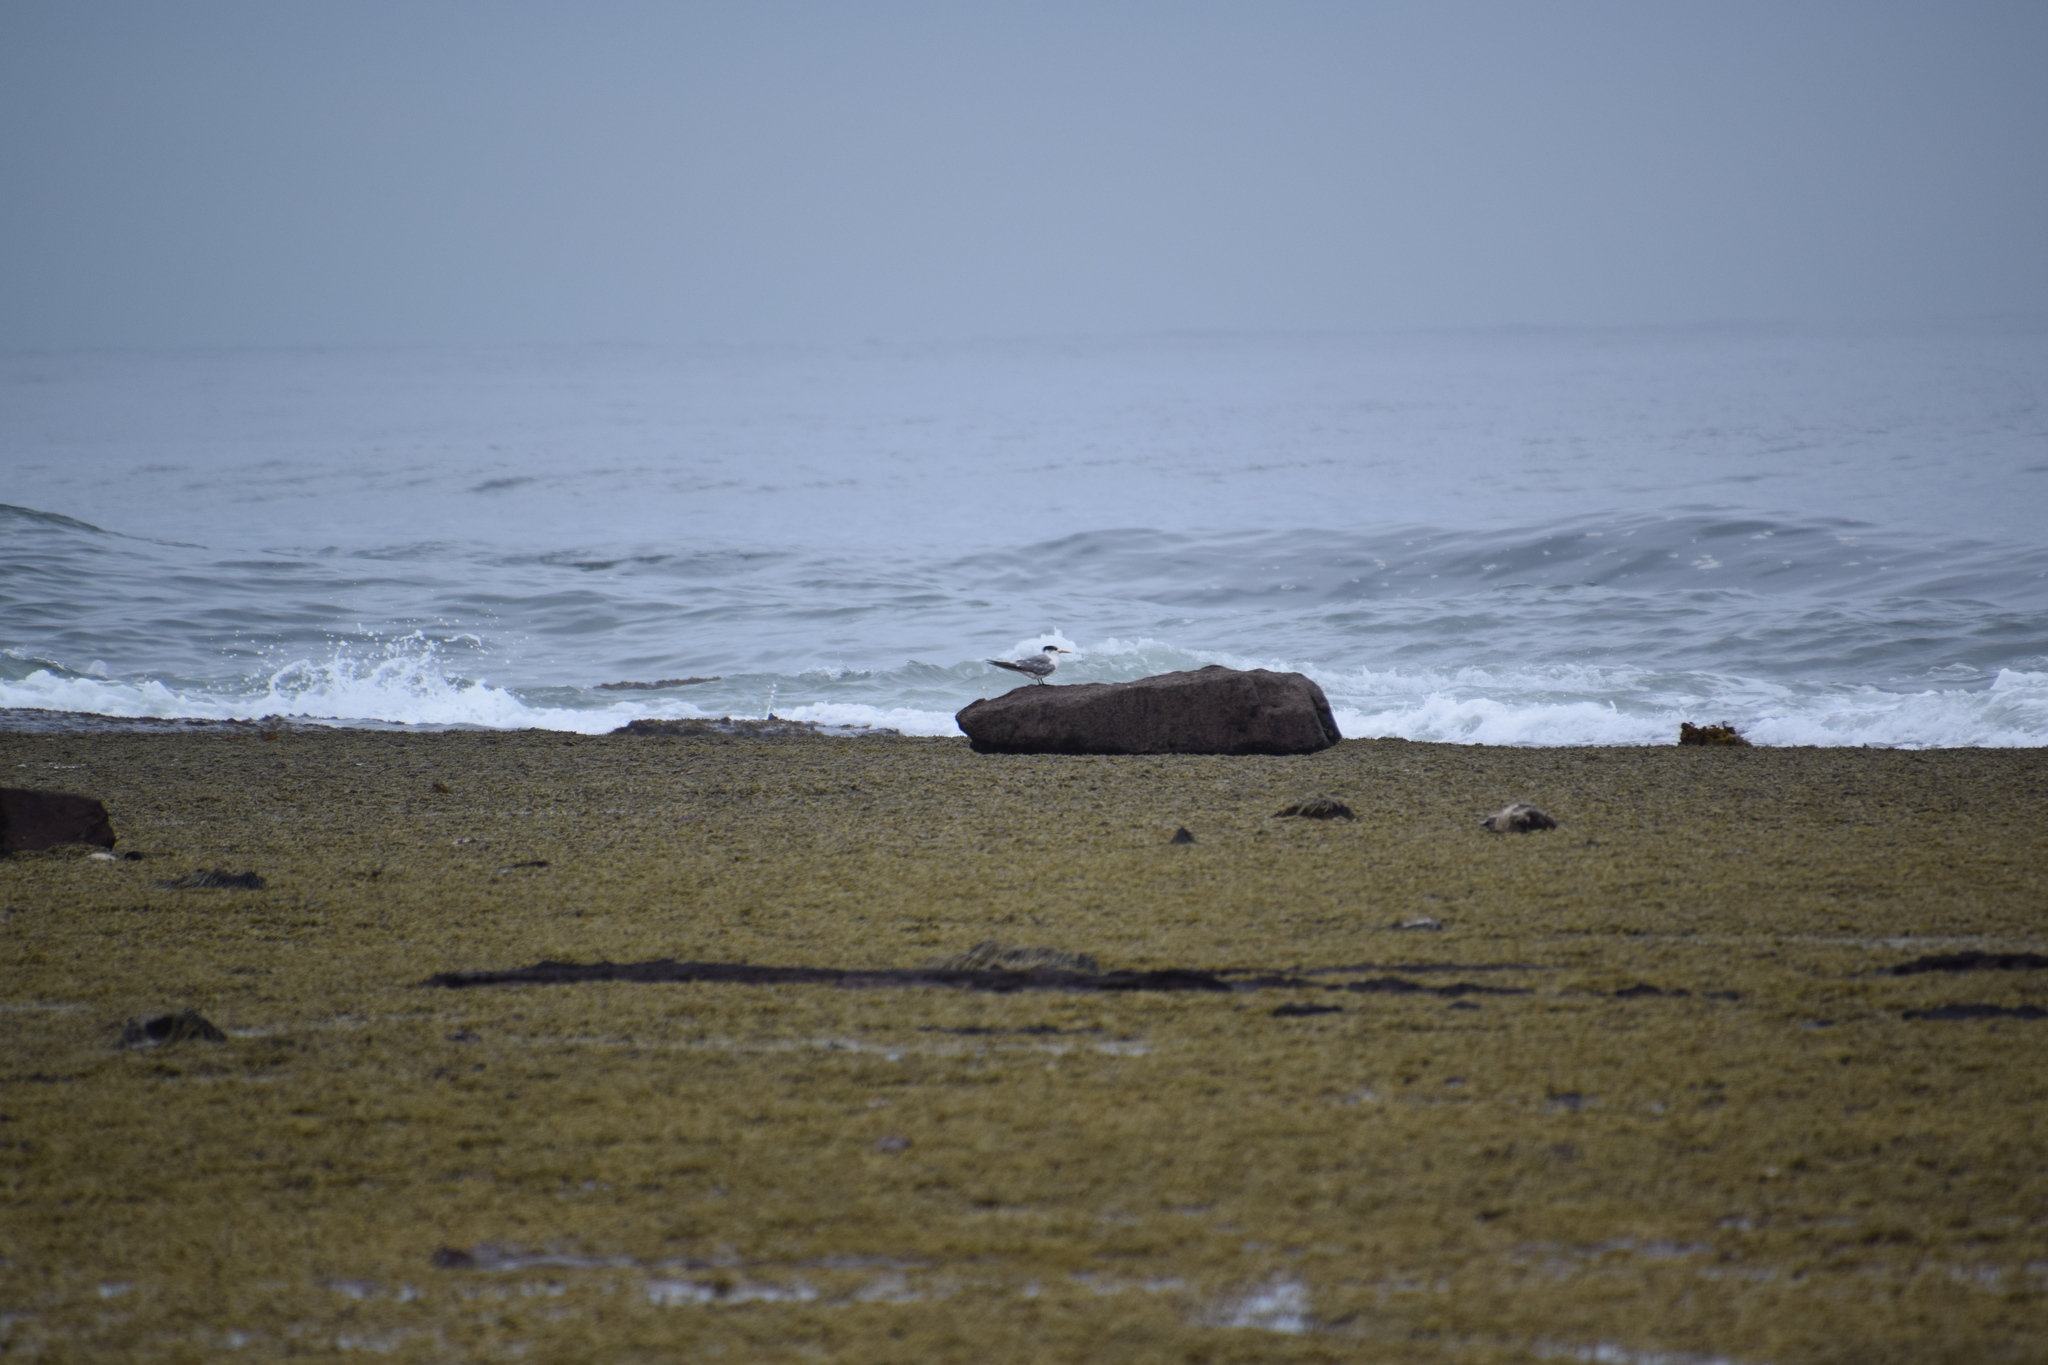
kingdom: Animalia
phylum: Chordata
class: Aves
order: Charadriiformes
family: Laridae
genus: Thalasseus
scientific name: Thalasseus bergii
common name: Greater crested tern
